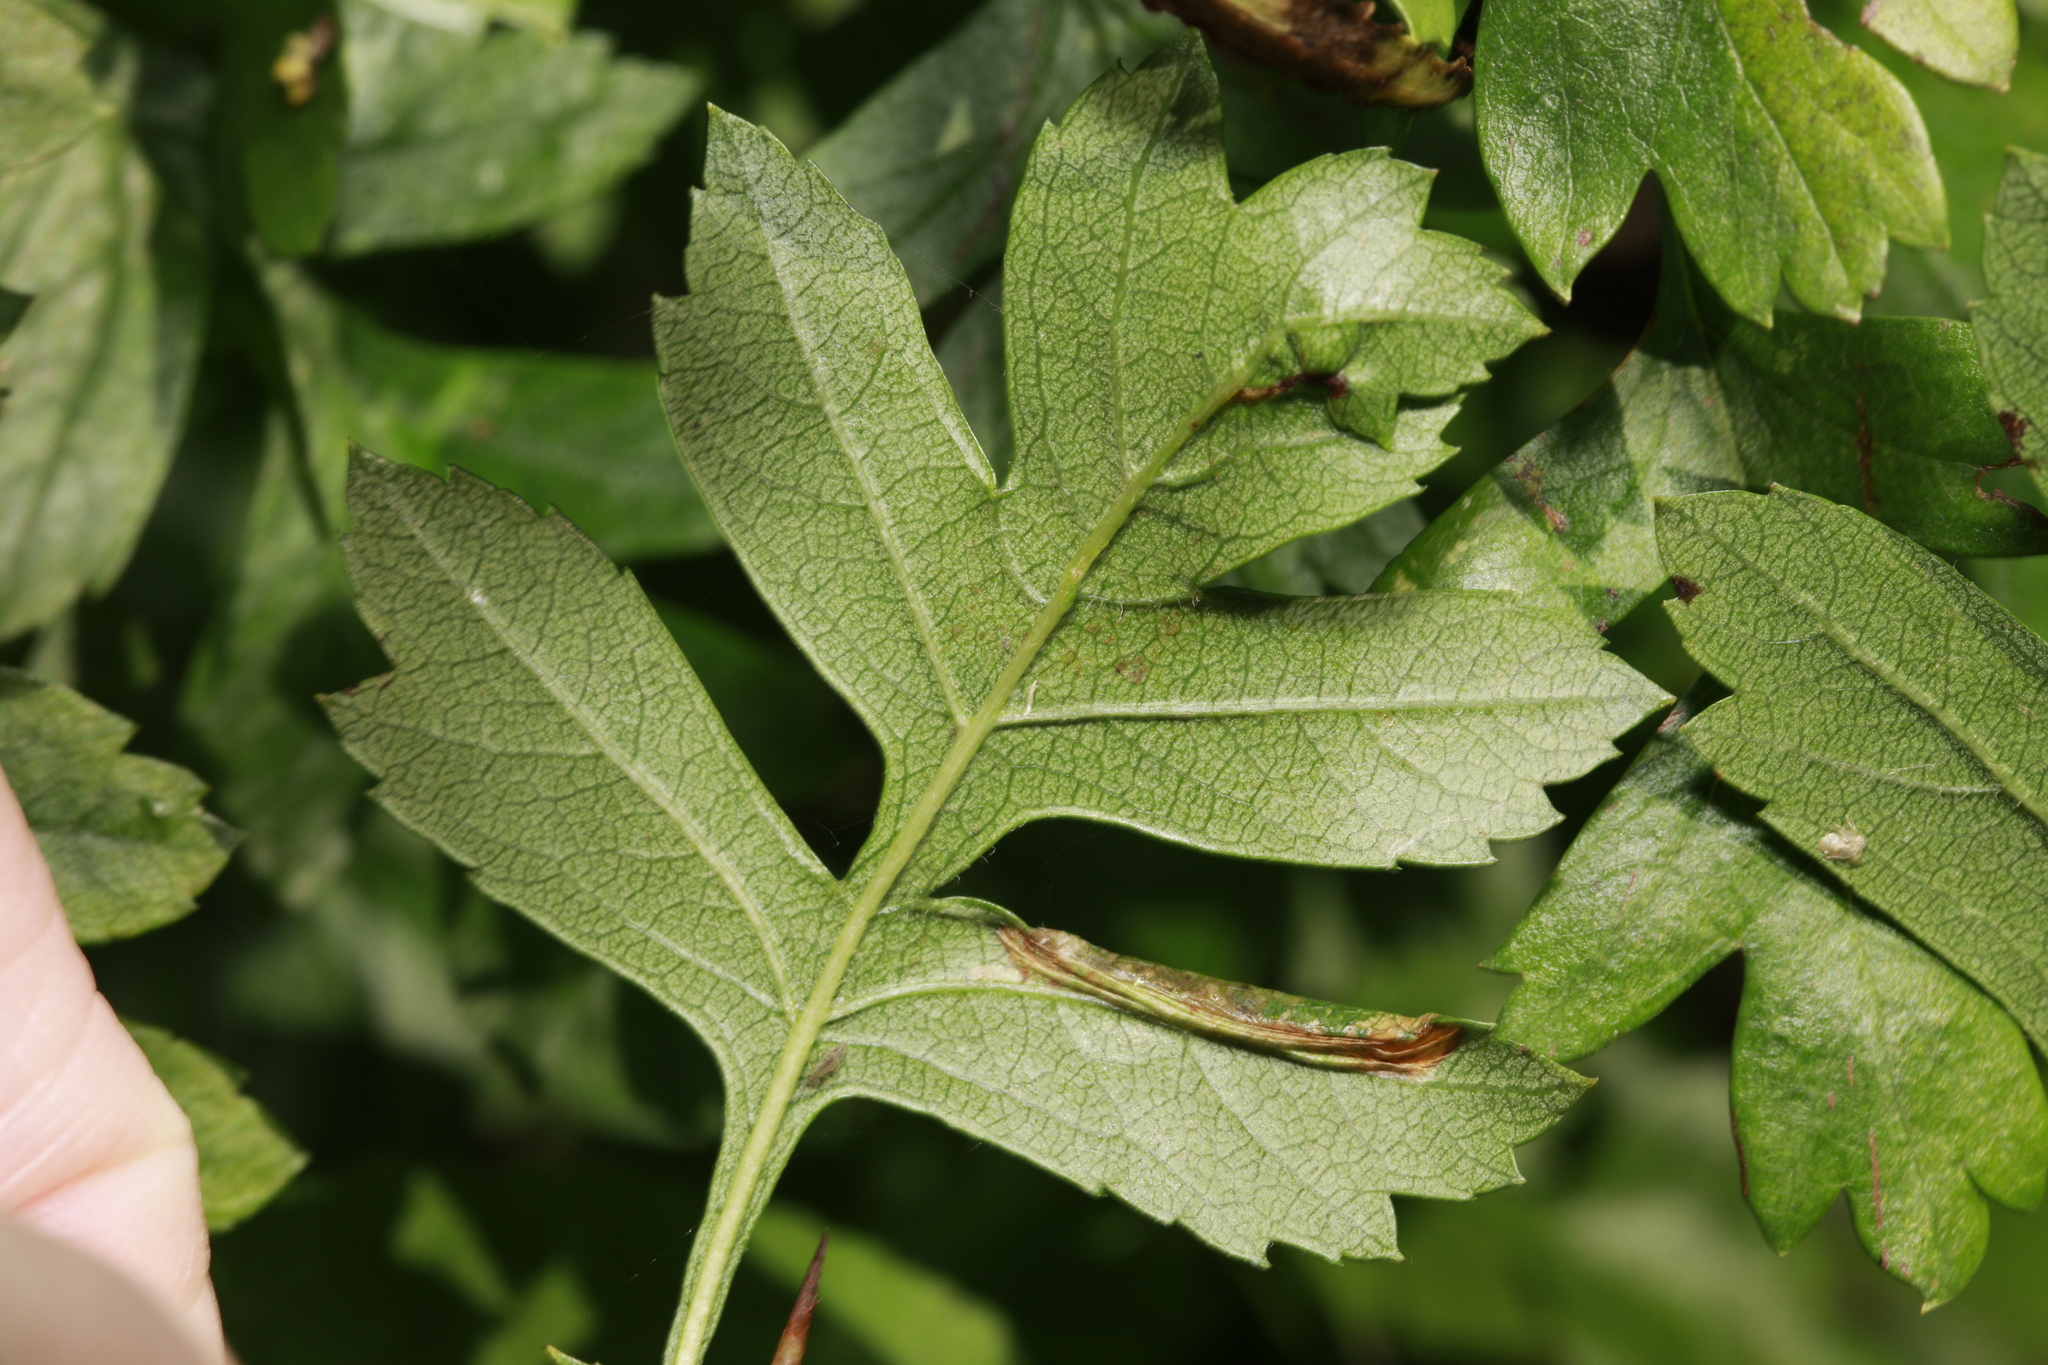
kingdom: Animalia
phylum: Arthropoda
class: Insecta
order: Lepidoptera
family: Gracillariidae
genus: Phyllonorycter
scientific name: Phyllonorycter oxyacanthae
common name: Common thorn midget
